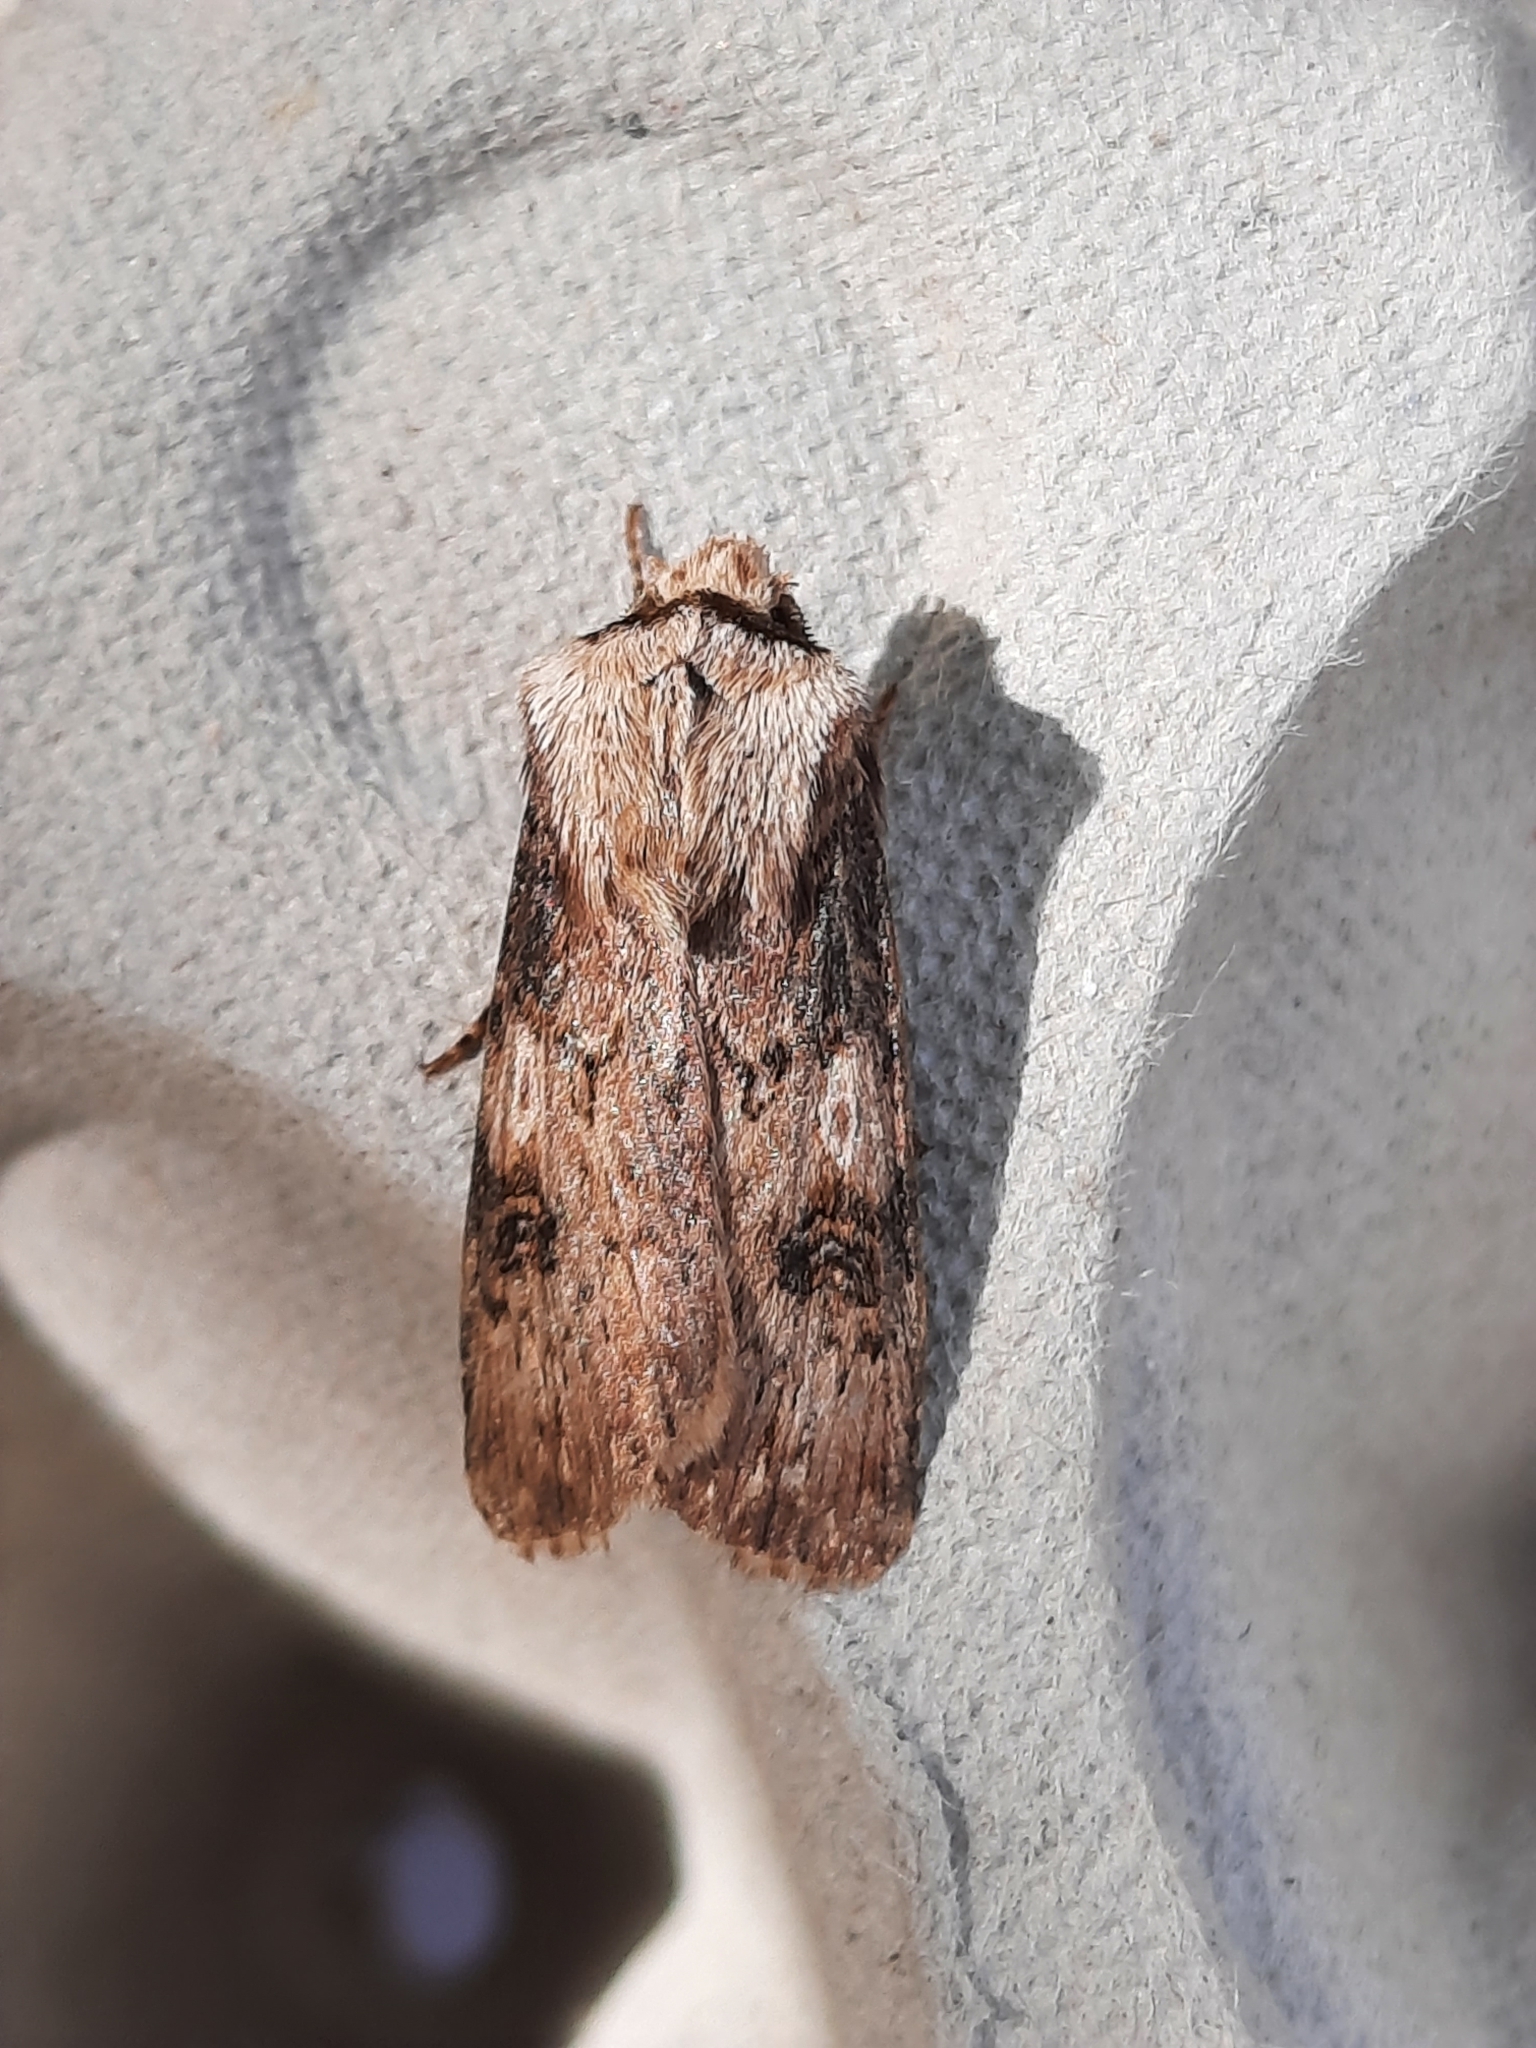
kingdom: Animalia
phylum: Arthropoda
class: Insecta
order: Lepidoptera
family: Noctuidae
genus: Agrotis
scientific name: Agrotis puta
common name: Shuttle-shaped dart
